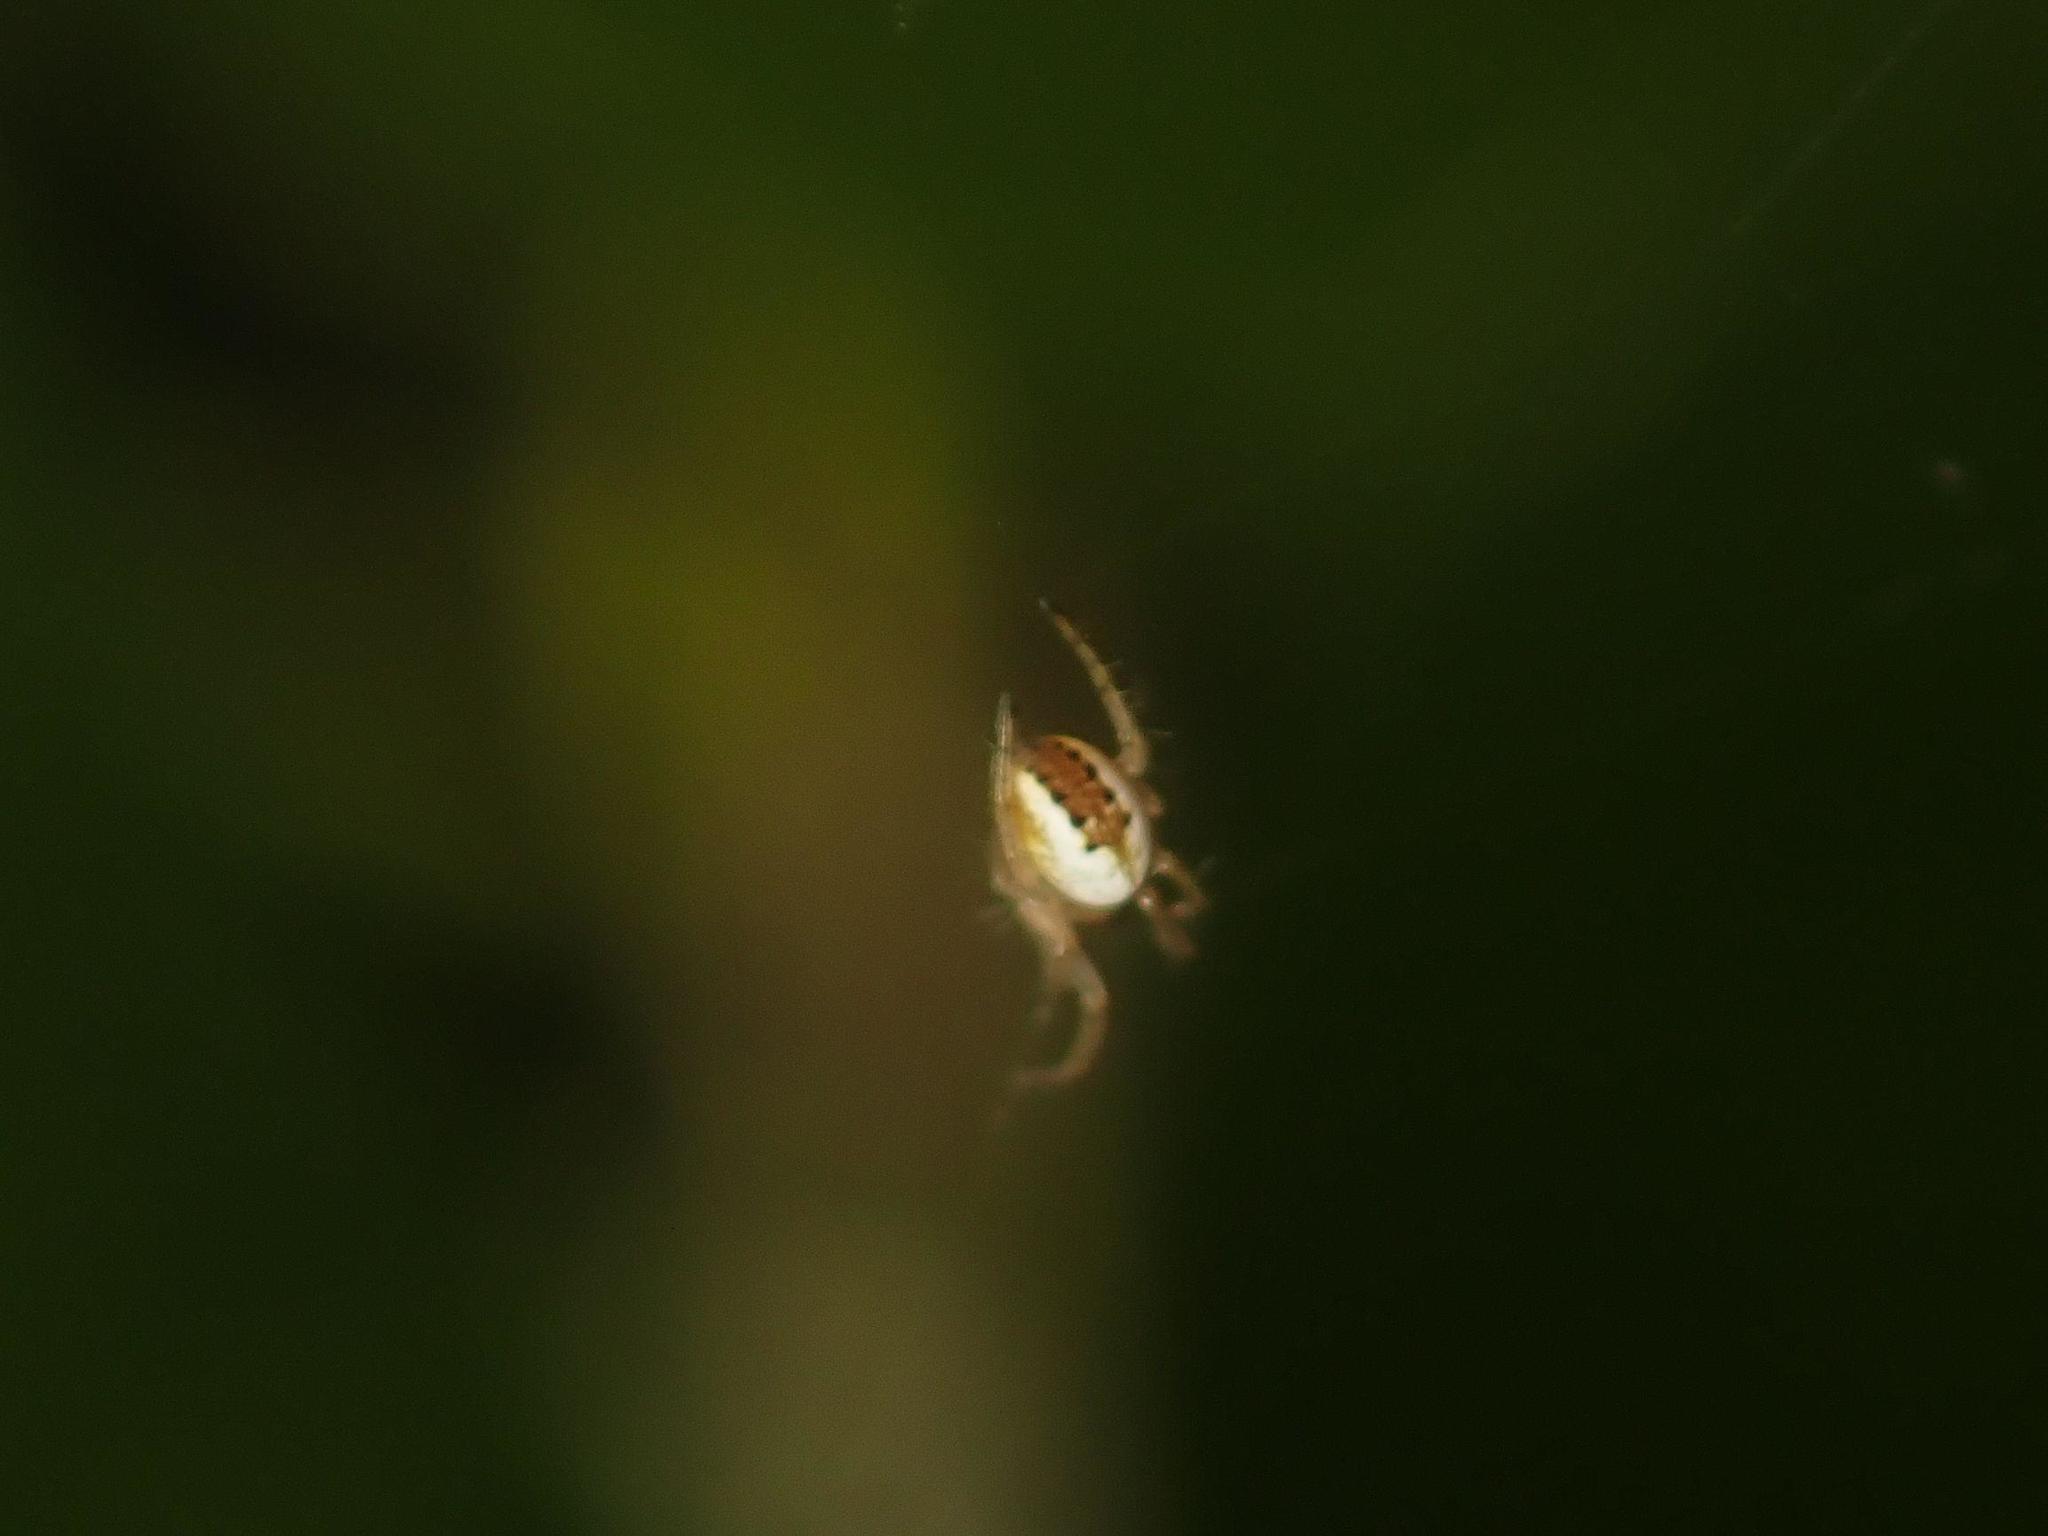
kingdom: Animalia
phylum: Arthropoda
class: Arachnida
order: Araneae
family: Araneidae
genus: Mangora
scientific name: Mangora acalypha
